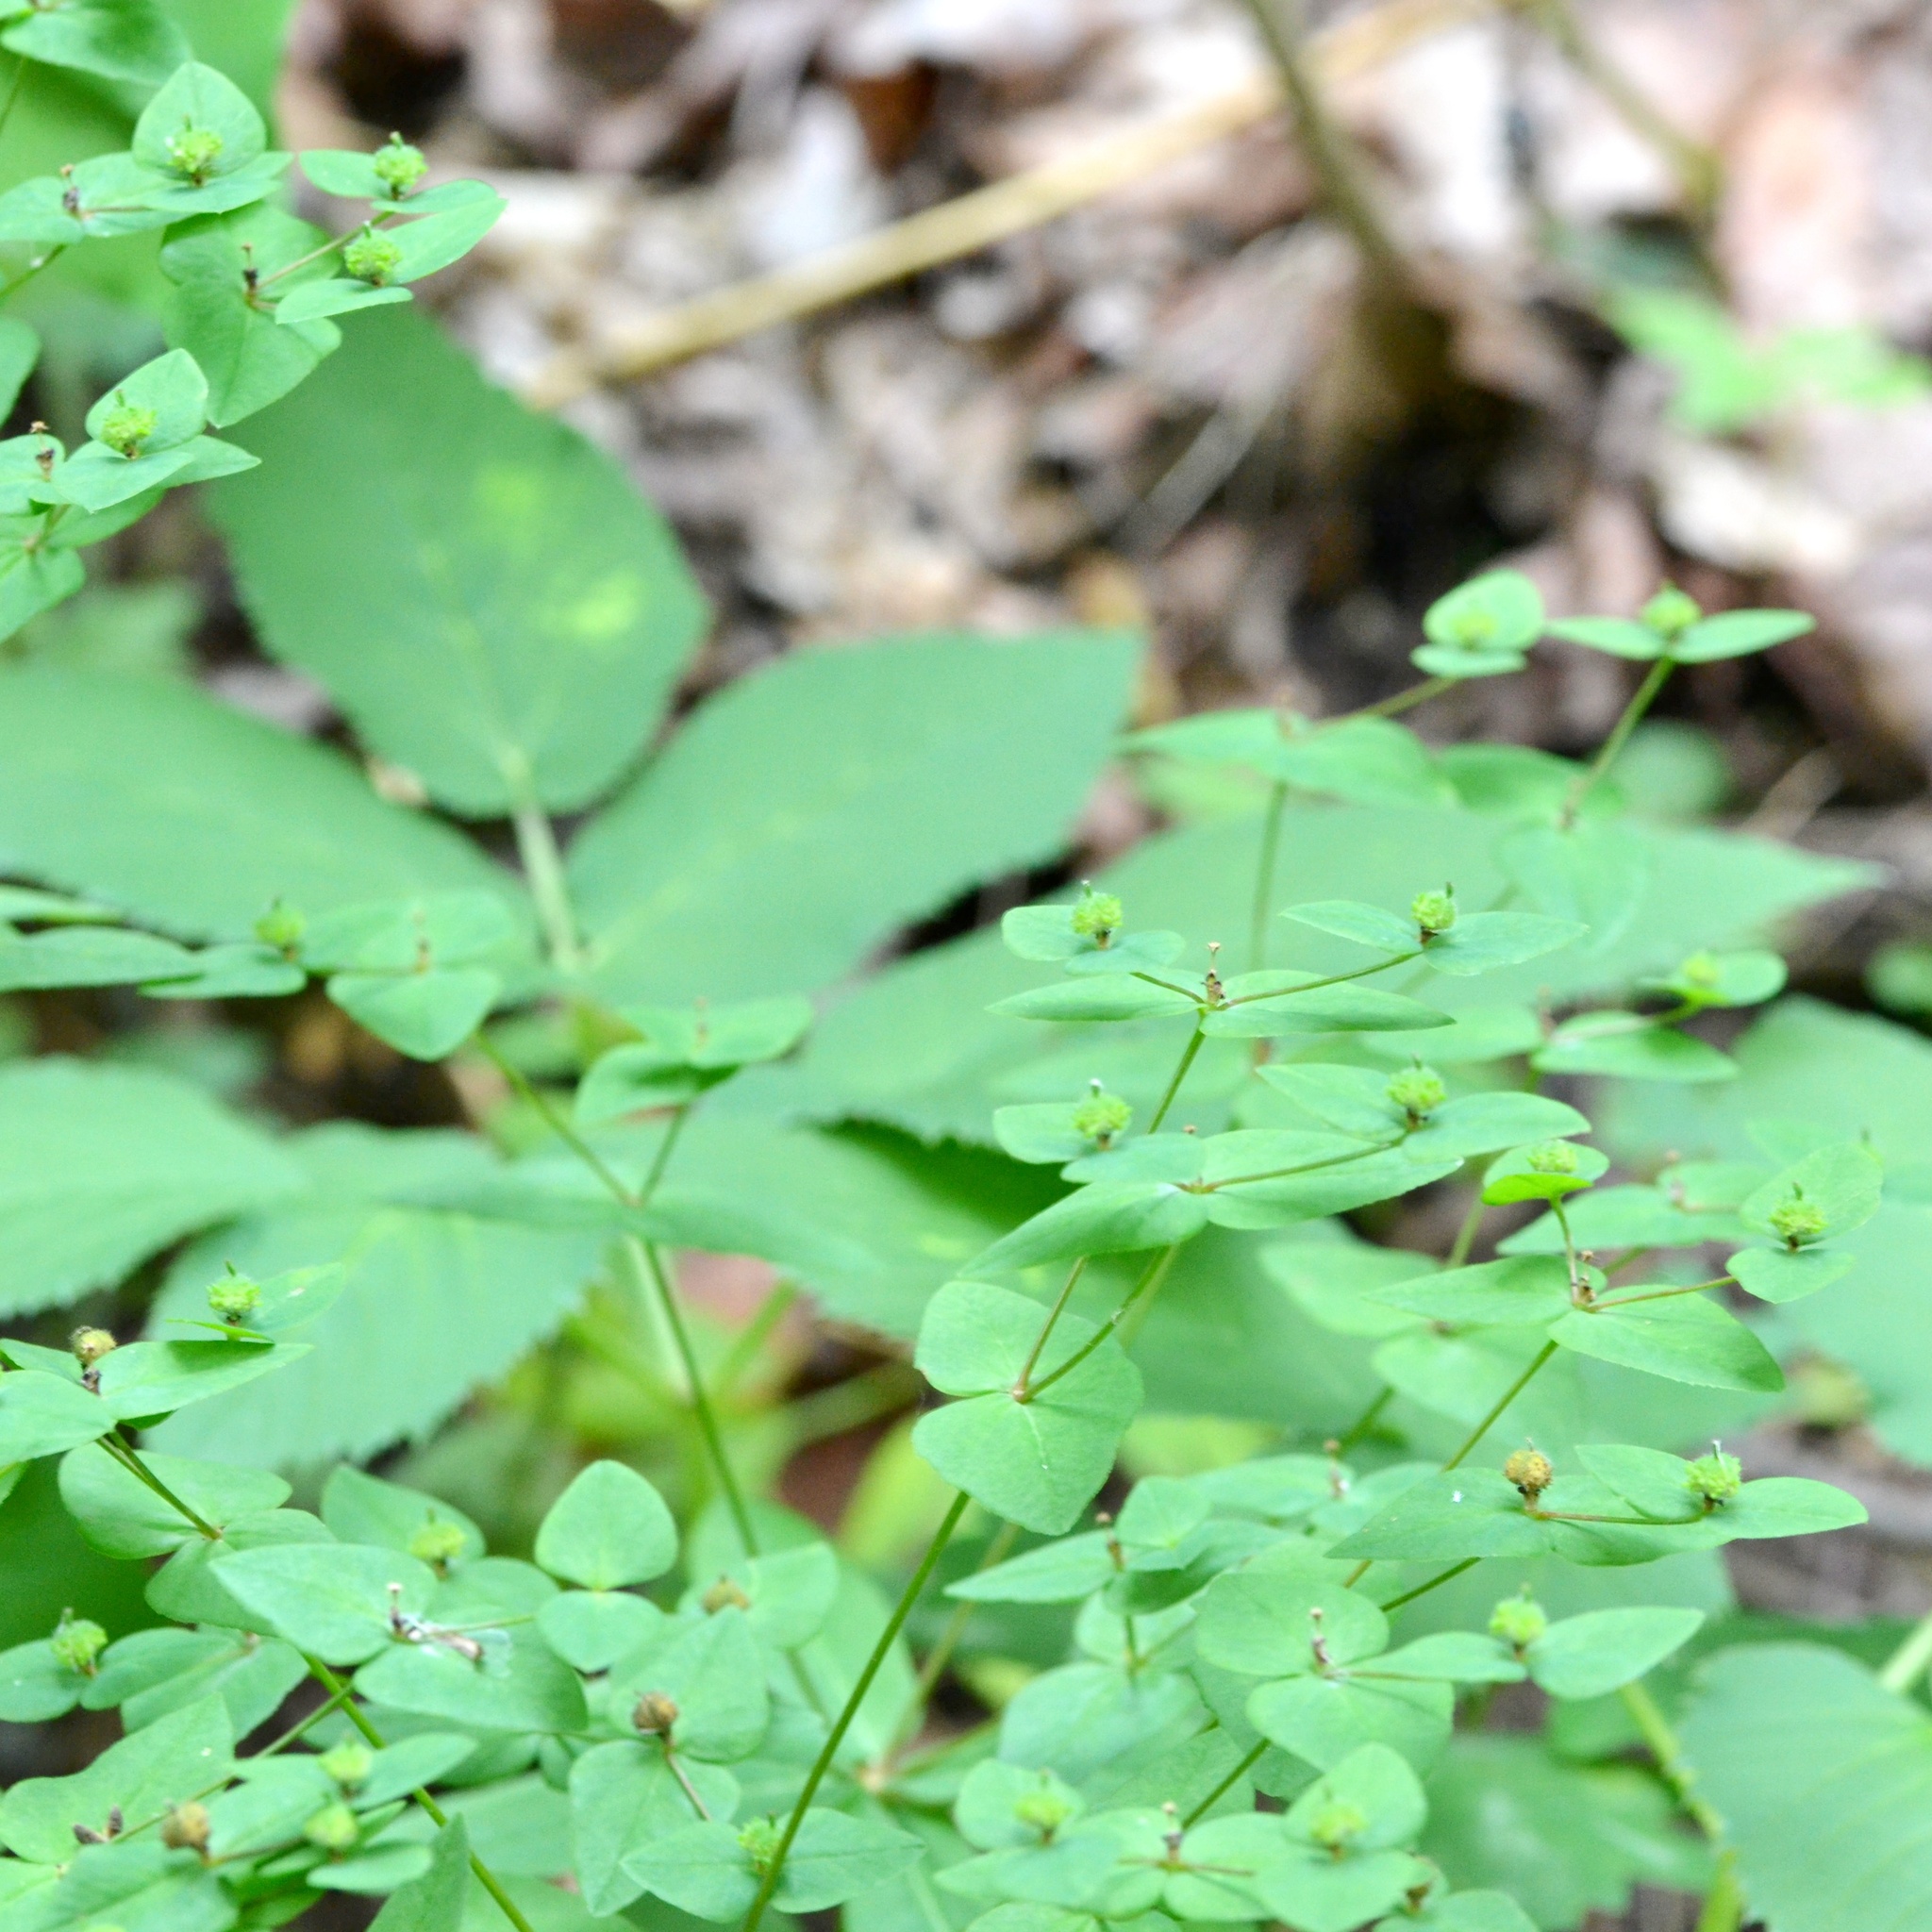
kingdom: Plantae
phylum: Tracheophyta
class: Magnoliopsida
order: Malpighiales
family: Euphorbiaceae
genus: Euphorbia
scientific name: Euphorbia dulcis
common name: Sweet spurge
